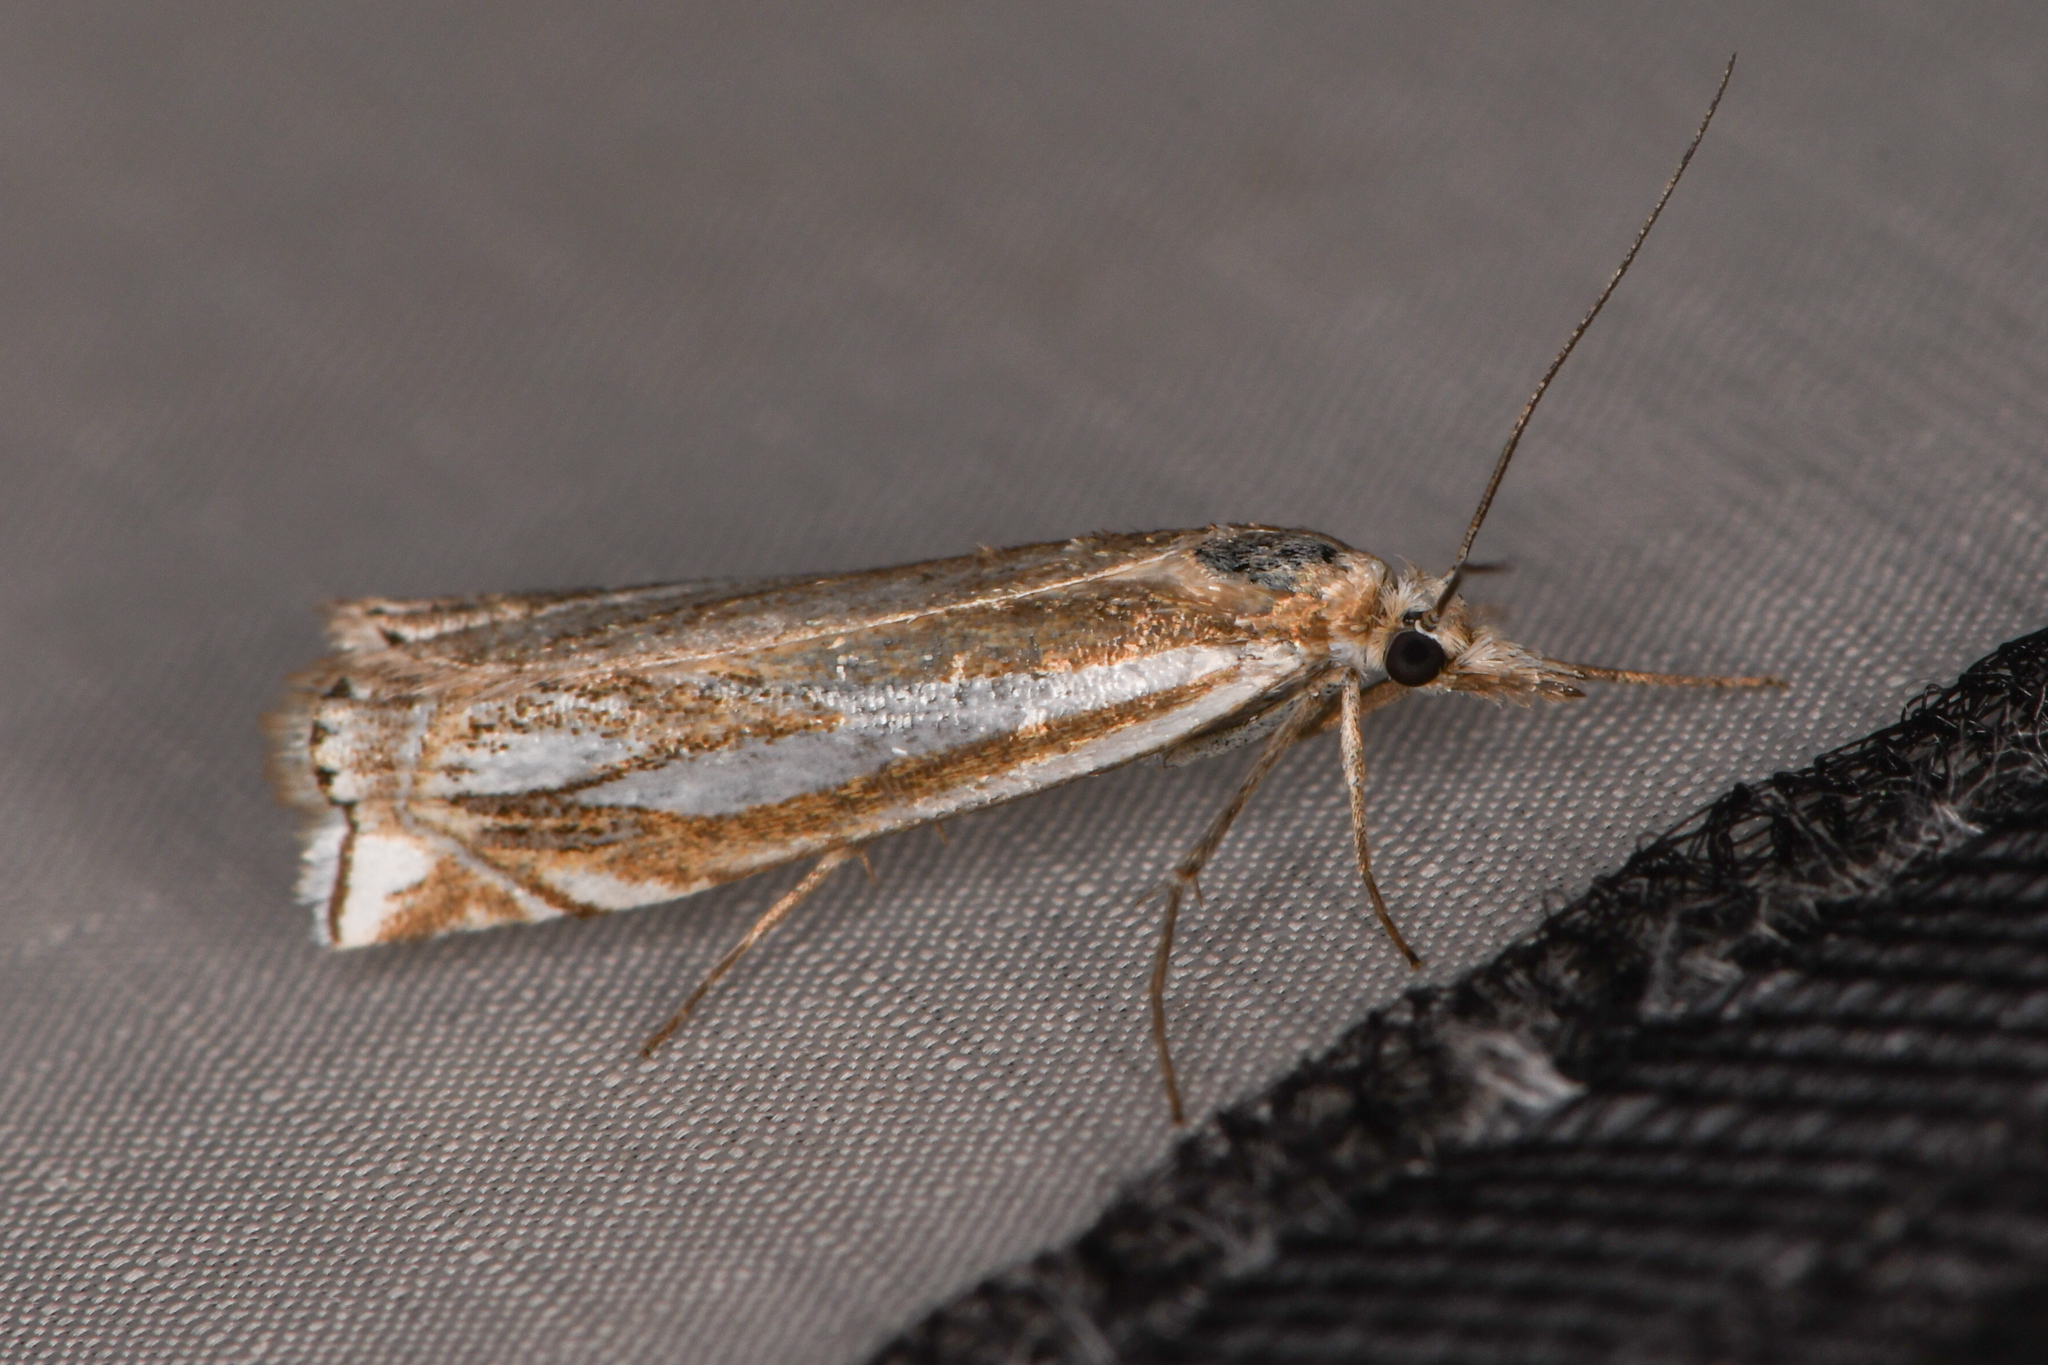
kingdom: Animalia
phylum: Arthropoda
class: Insecta
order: Lepidoptera
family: Crambidae
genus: Crambus
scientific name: Crambus whitmerellus
